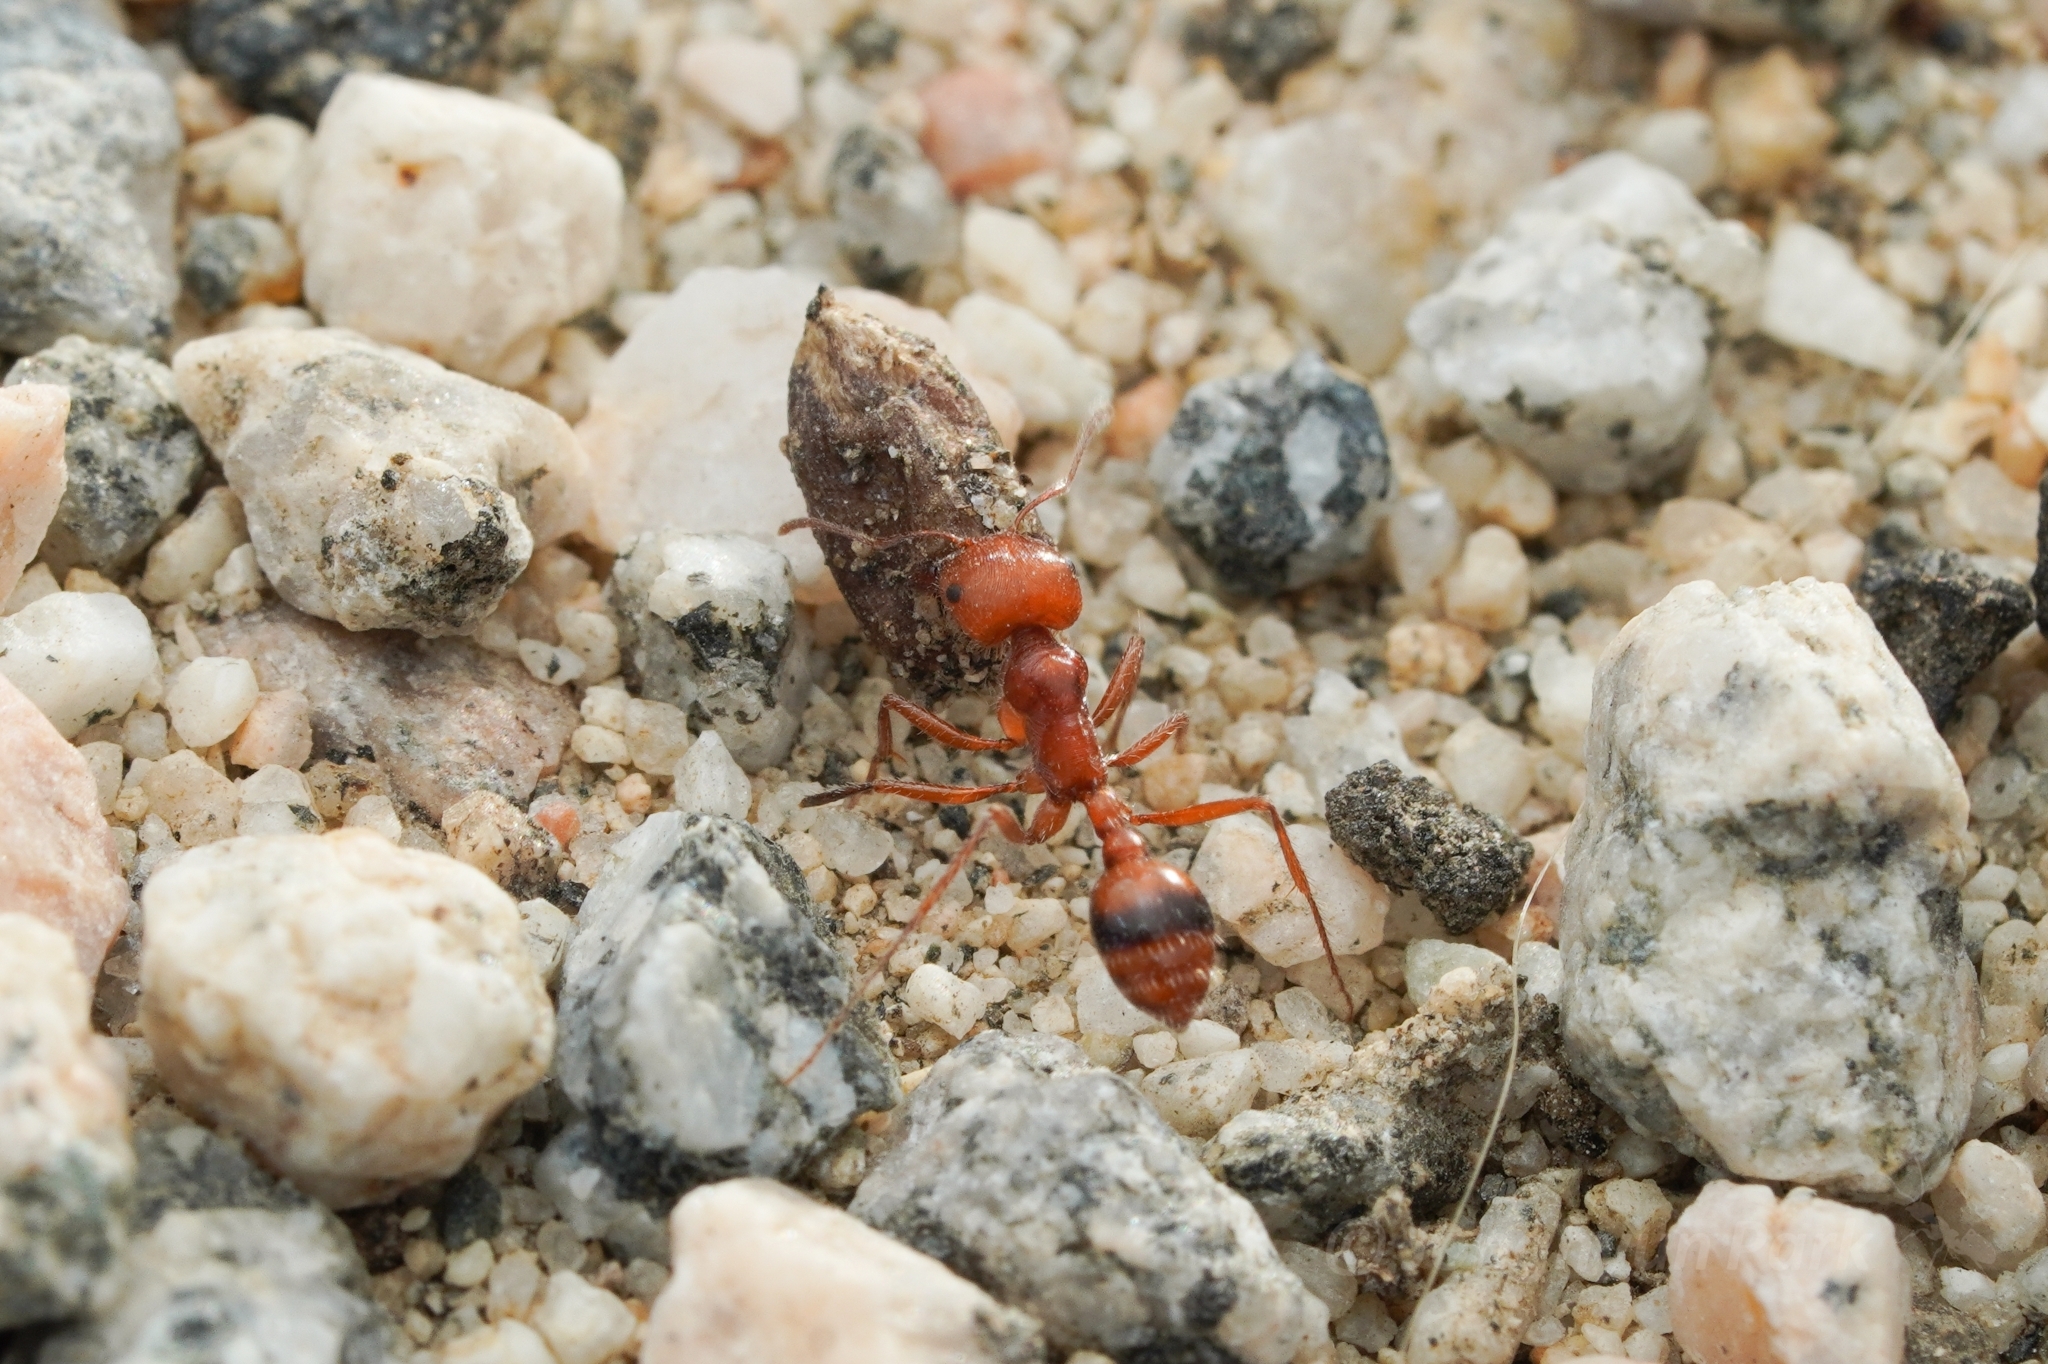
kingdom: Animalia
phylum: Arthropoda
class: Insecta
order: Hymenoptera
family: Formicidae
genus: Pogonomyrmex
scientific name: Pogonomyrmex californicus
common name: California harvester ant
